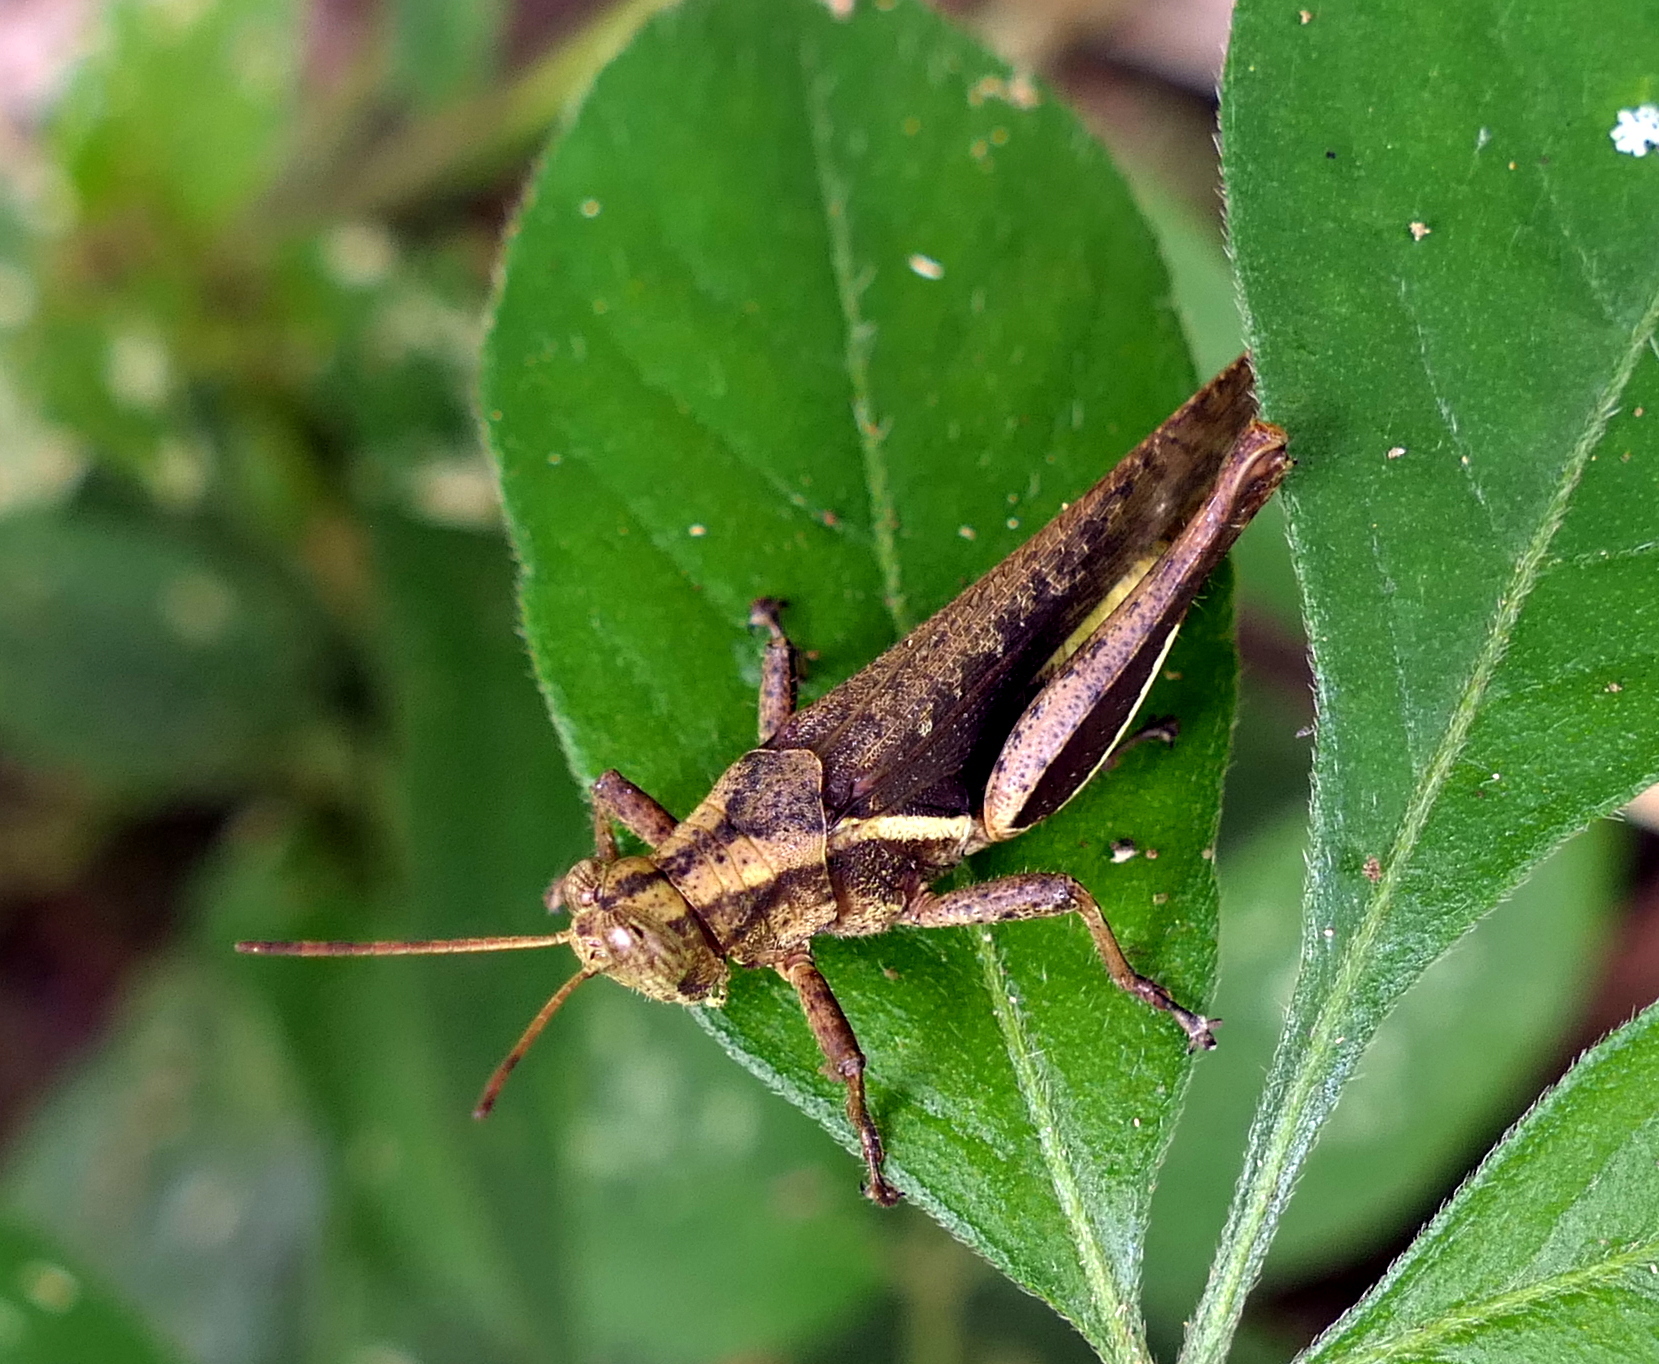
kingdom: Animalia
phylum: Arthropoda
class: Insecta
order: Orthoptera
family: Acrididae
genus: Abracris
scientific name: Abracris flavolineata
